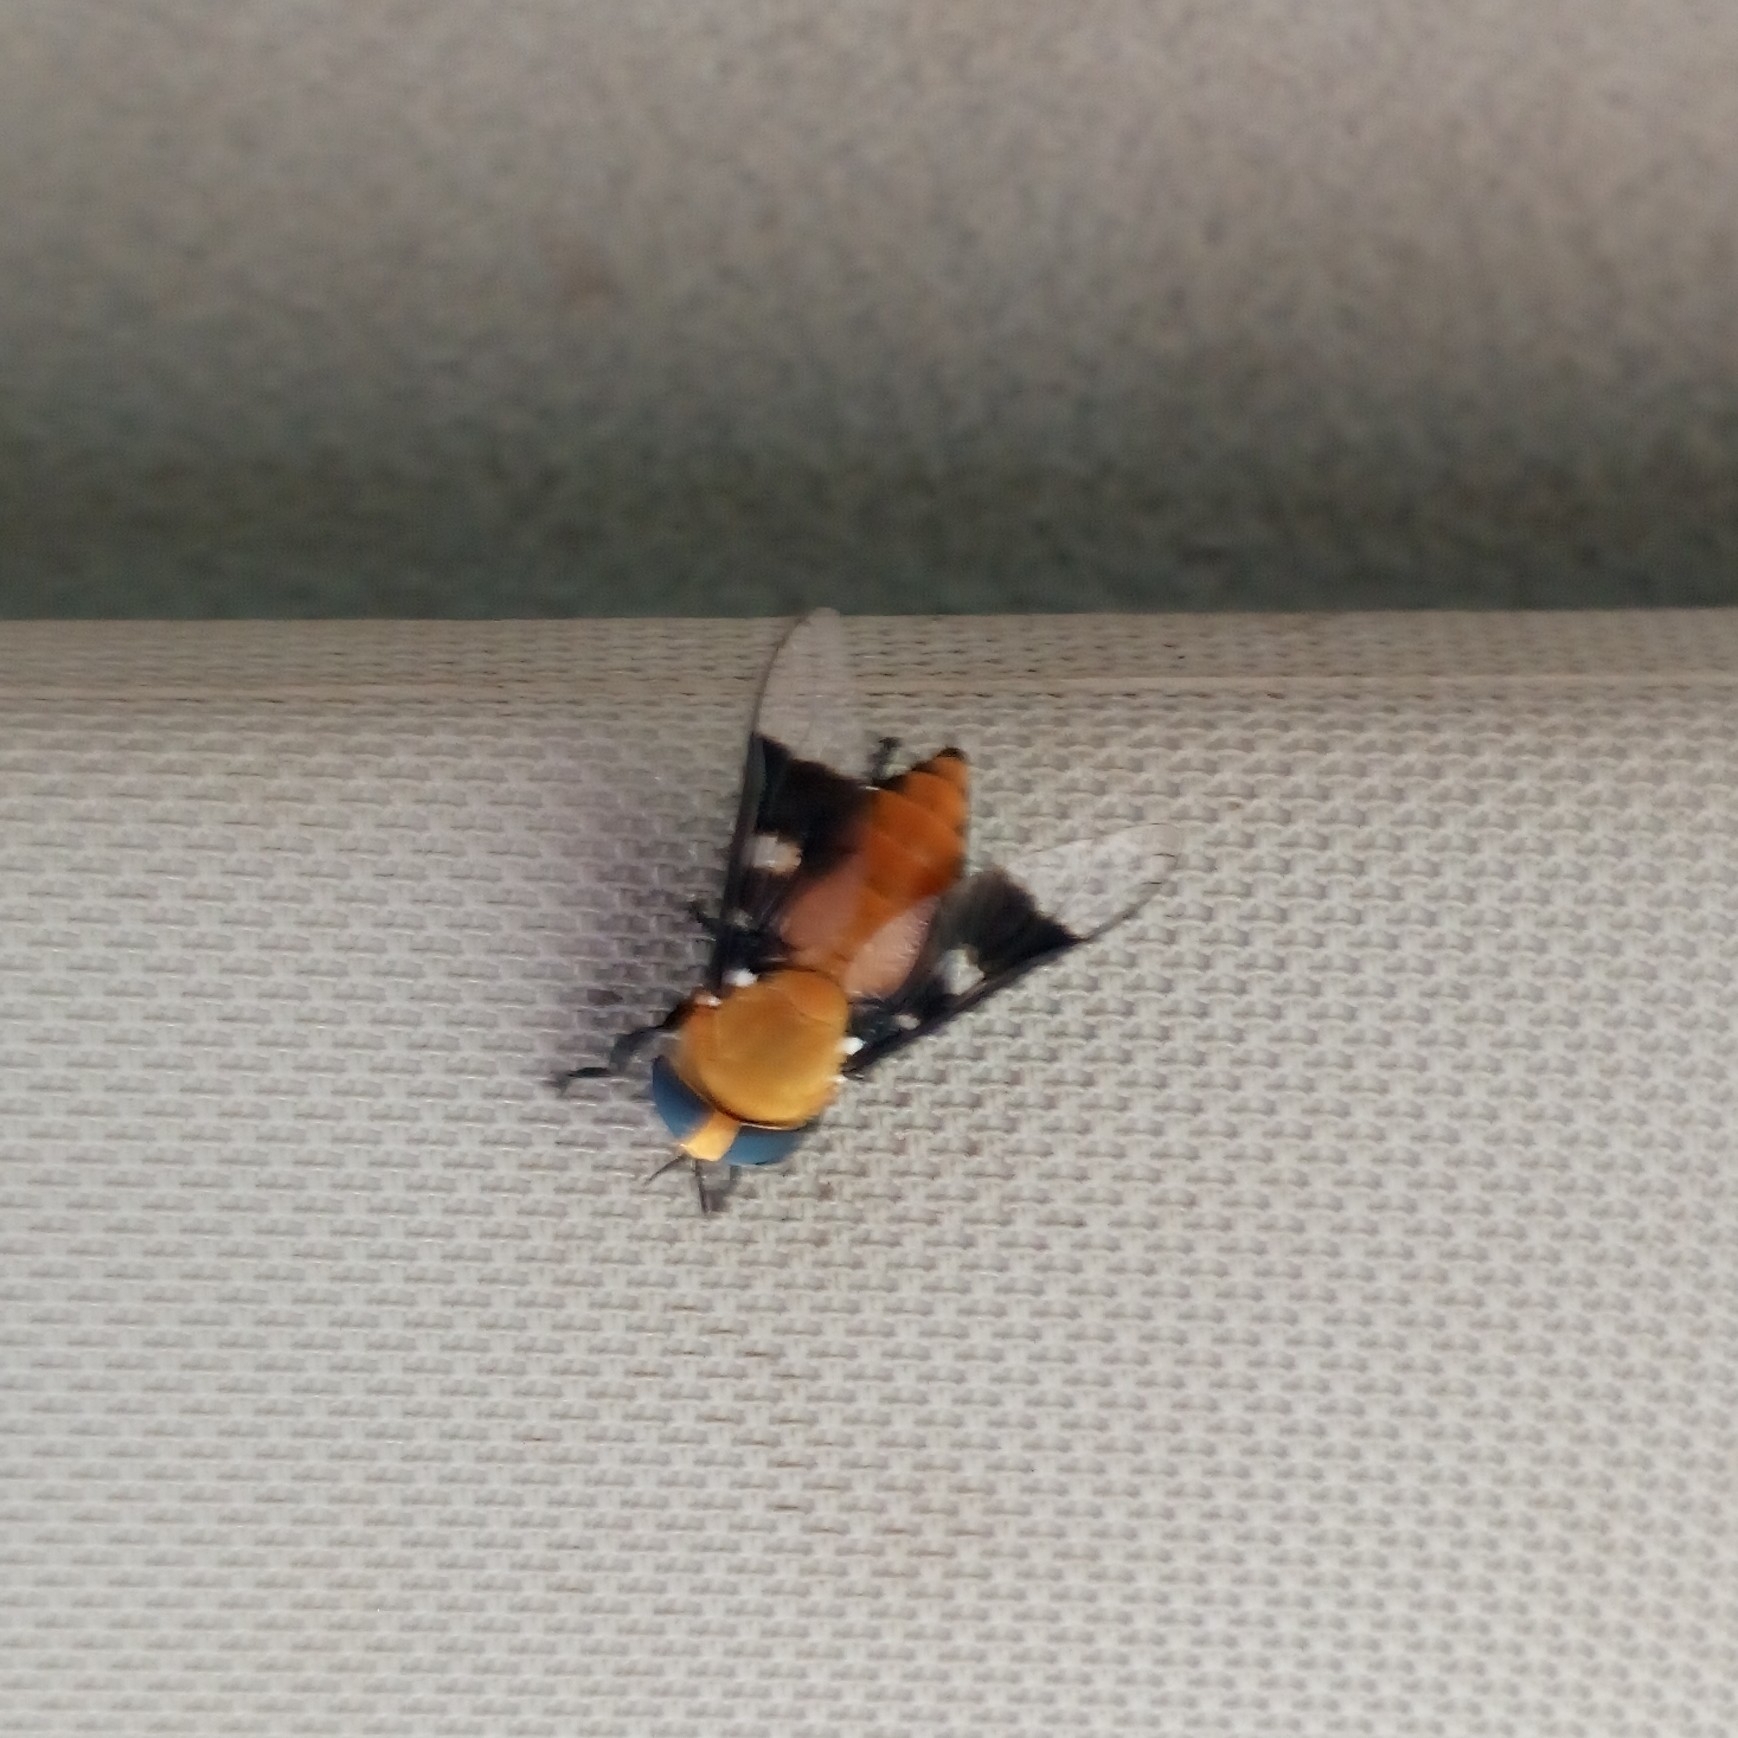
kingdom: Animalia
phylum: Arthropoda
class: Insecta
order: Diptera
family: Tabanidae
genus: Ancala
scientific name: Ancala africana
